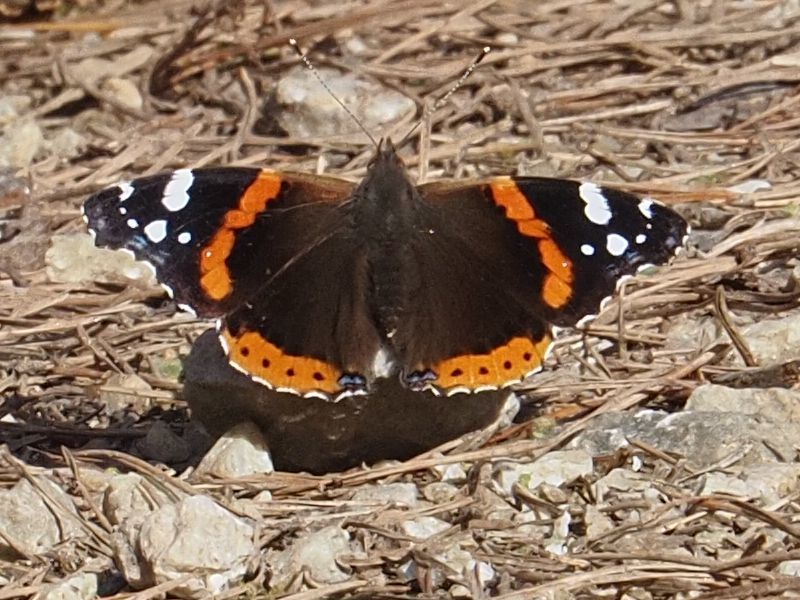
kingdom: Animalia
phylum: Arthropoda
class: Insecta
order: Lepidoptera
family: Nymphalidae
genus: Vanessa
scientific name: Vanessa atalanta
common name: Red admiral
